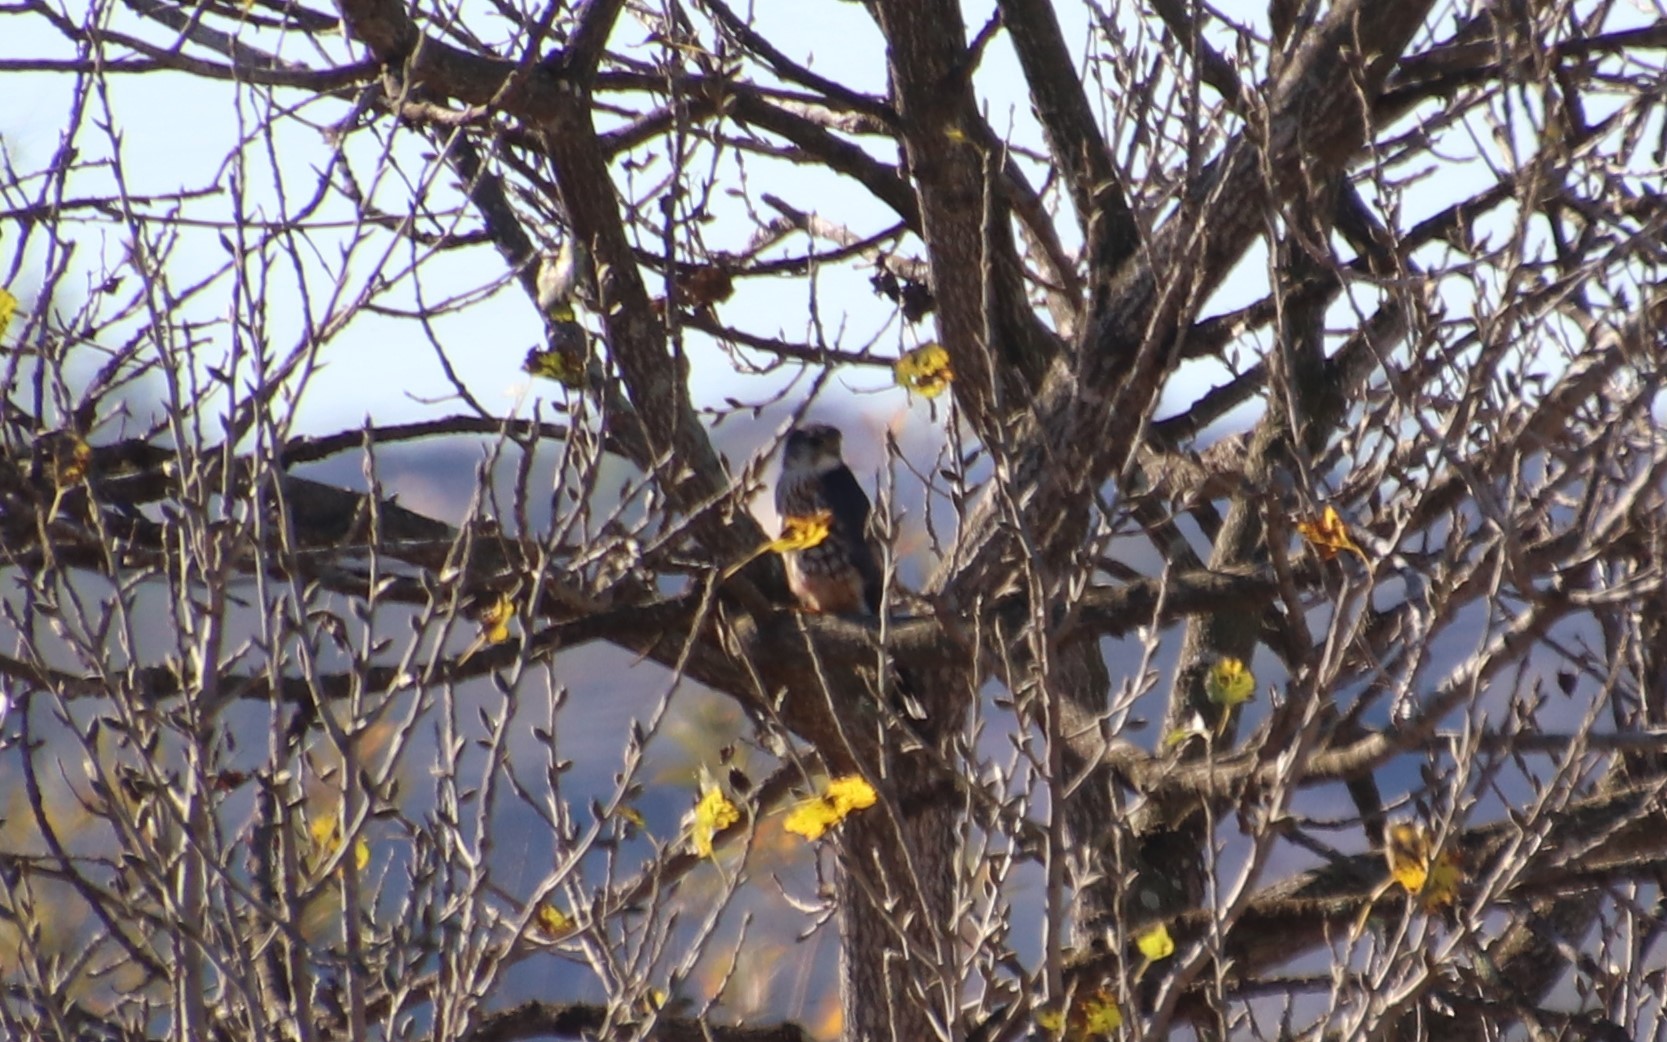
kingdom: Animalia
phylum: Chordata
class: Aves
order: Falconiformes
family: Falconidae
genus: Falco
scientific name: Falco columbarius
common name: Merlin
